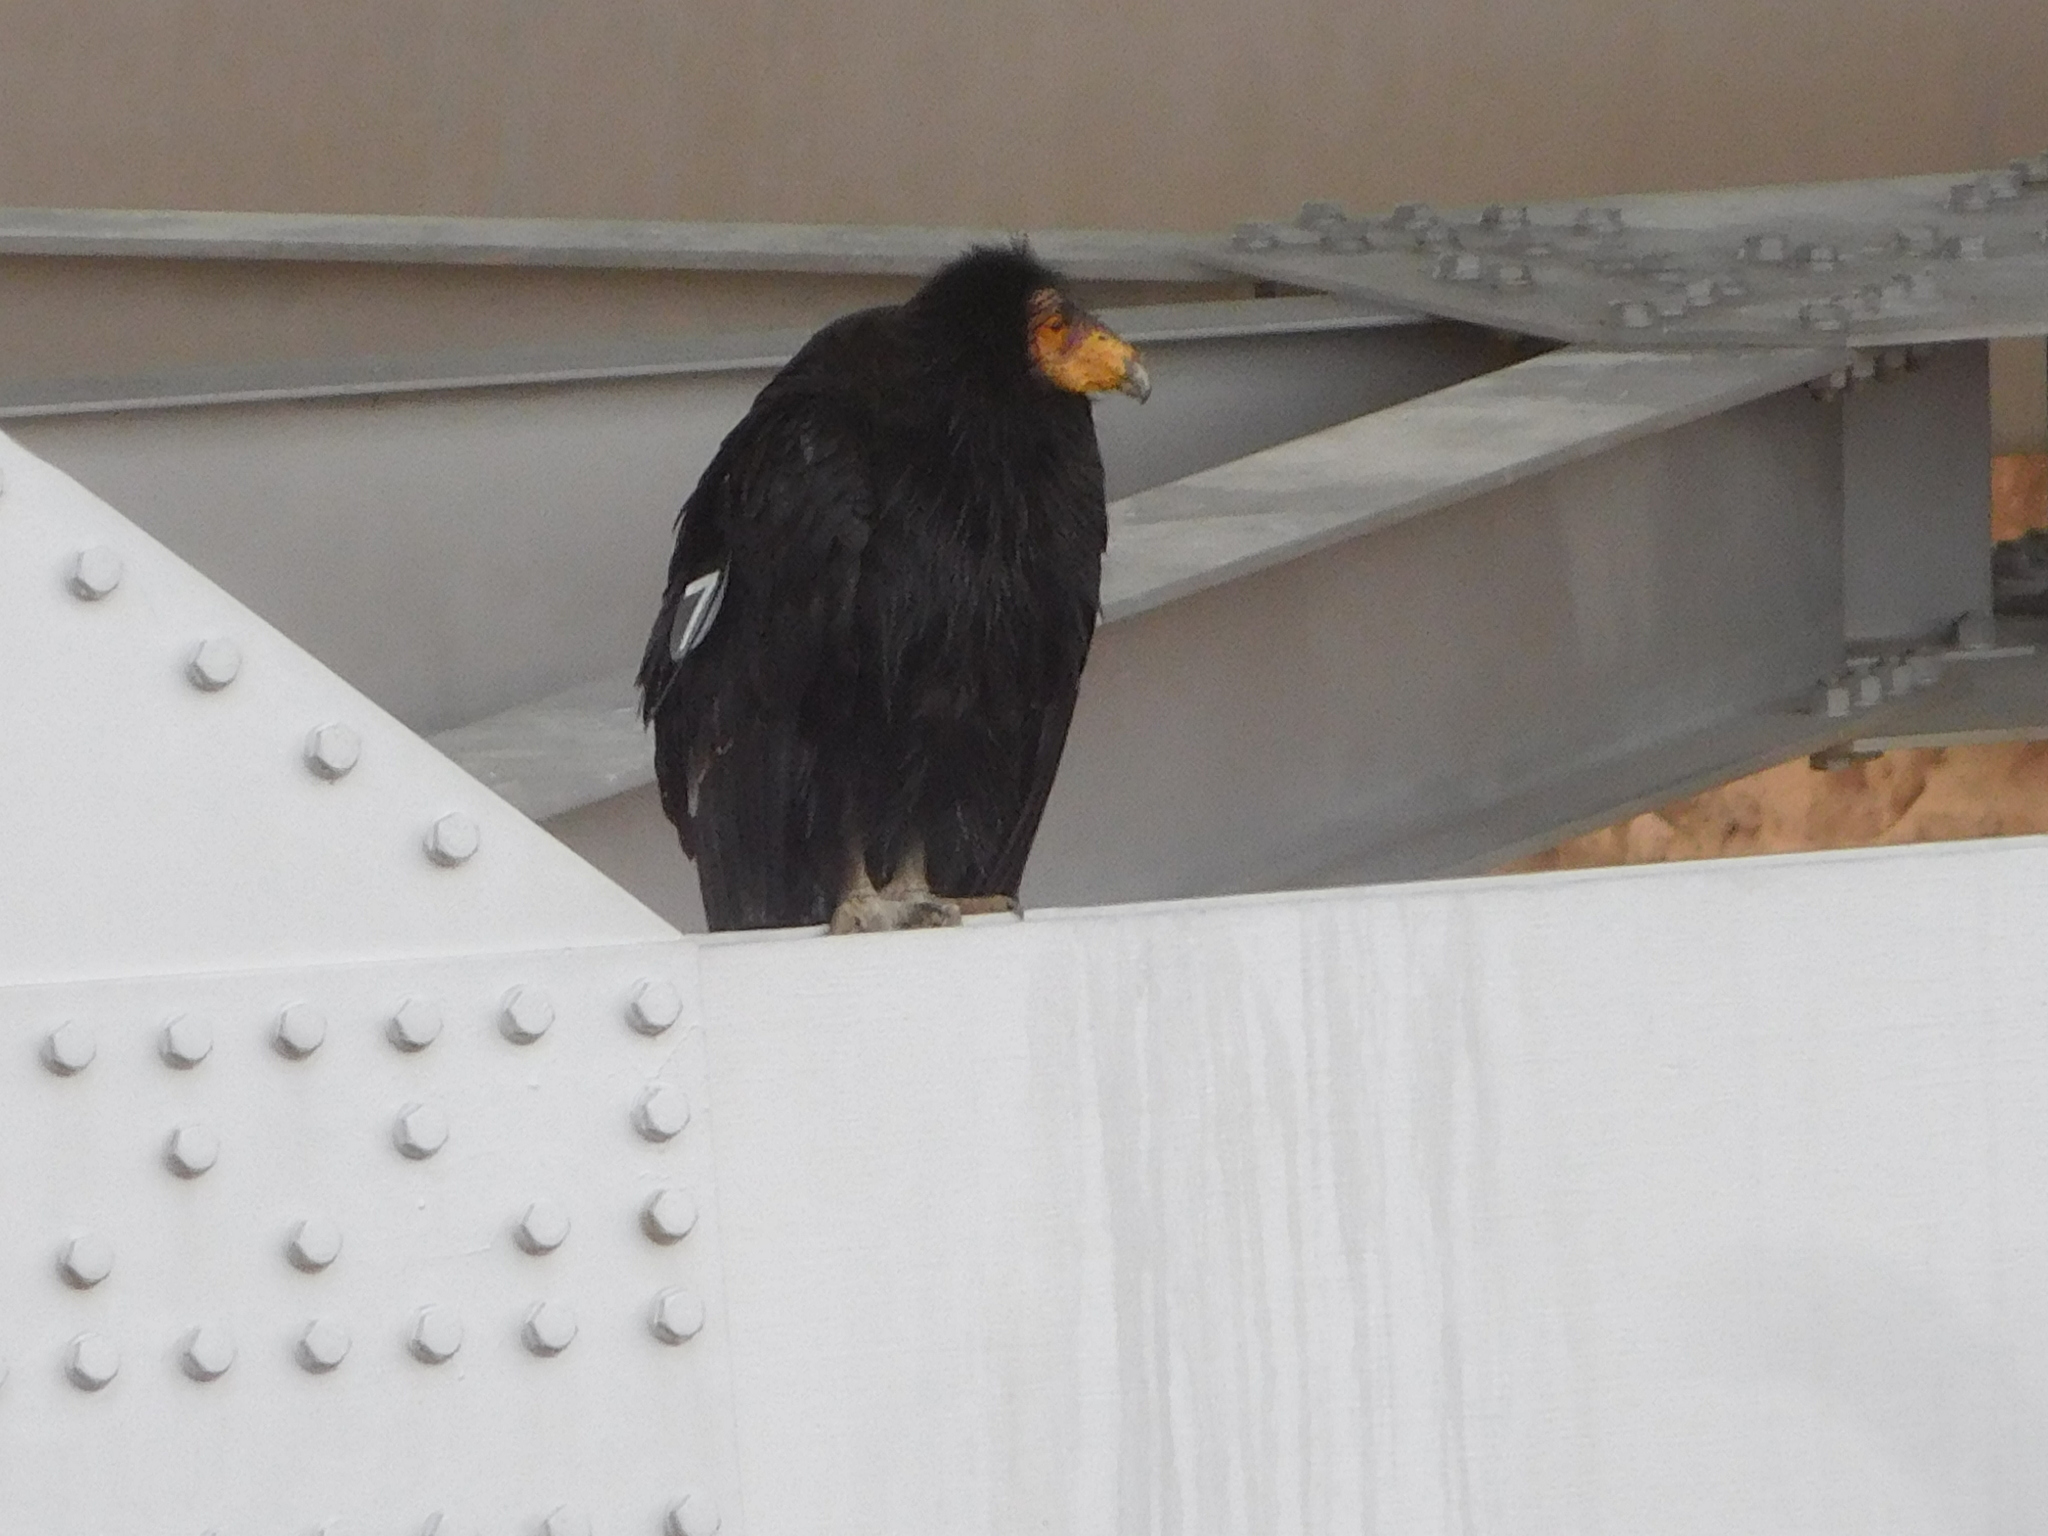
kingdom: Animalia
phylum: Chordata
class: Aves
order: Accipitriformes
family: Cathartidae
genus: Gymnogyps
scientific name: Gymnogyps californianus
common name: California condor
